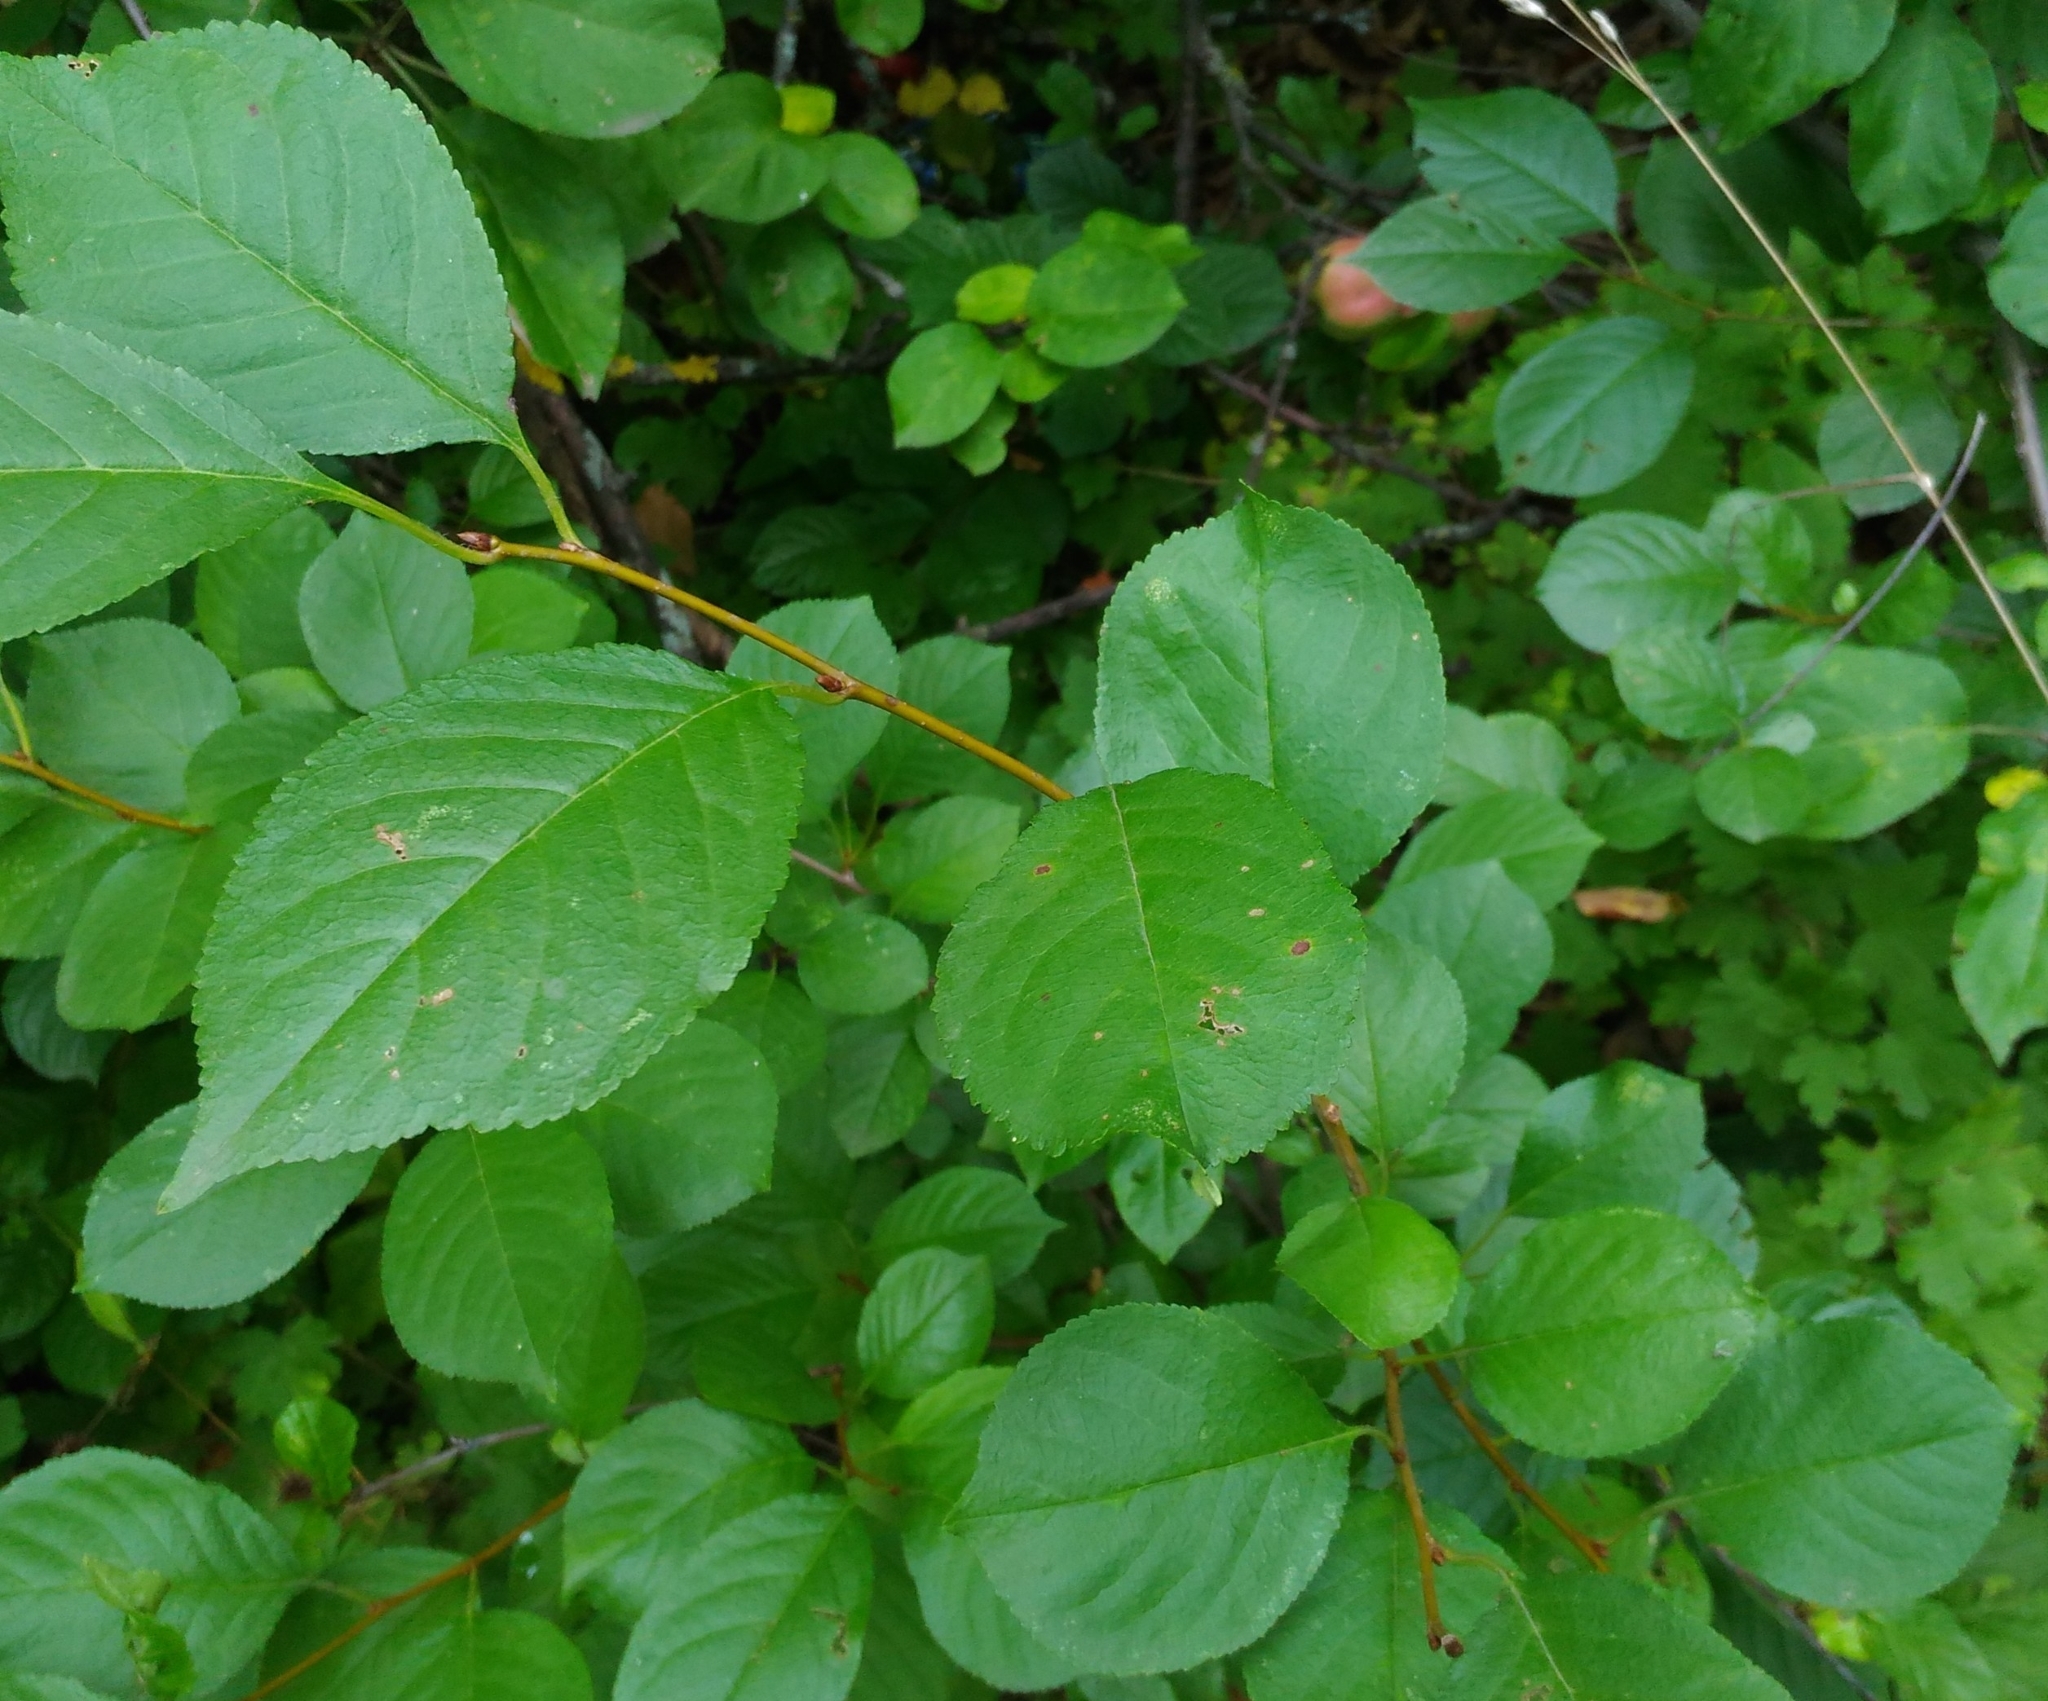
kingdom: Plantae
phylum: Tracheophyta
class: Magnoliopsida
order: Rosales
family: Rosaceae
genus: Prunus
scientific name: Prunus cerasus
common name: Morello cherry
